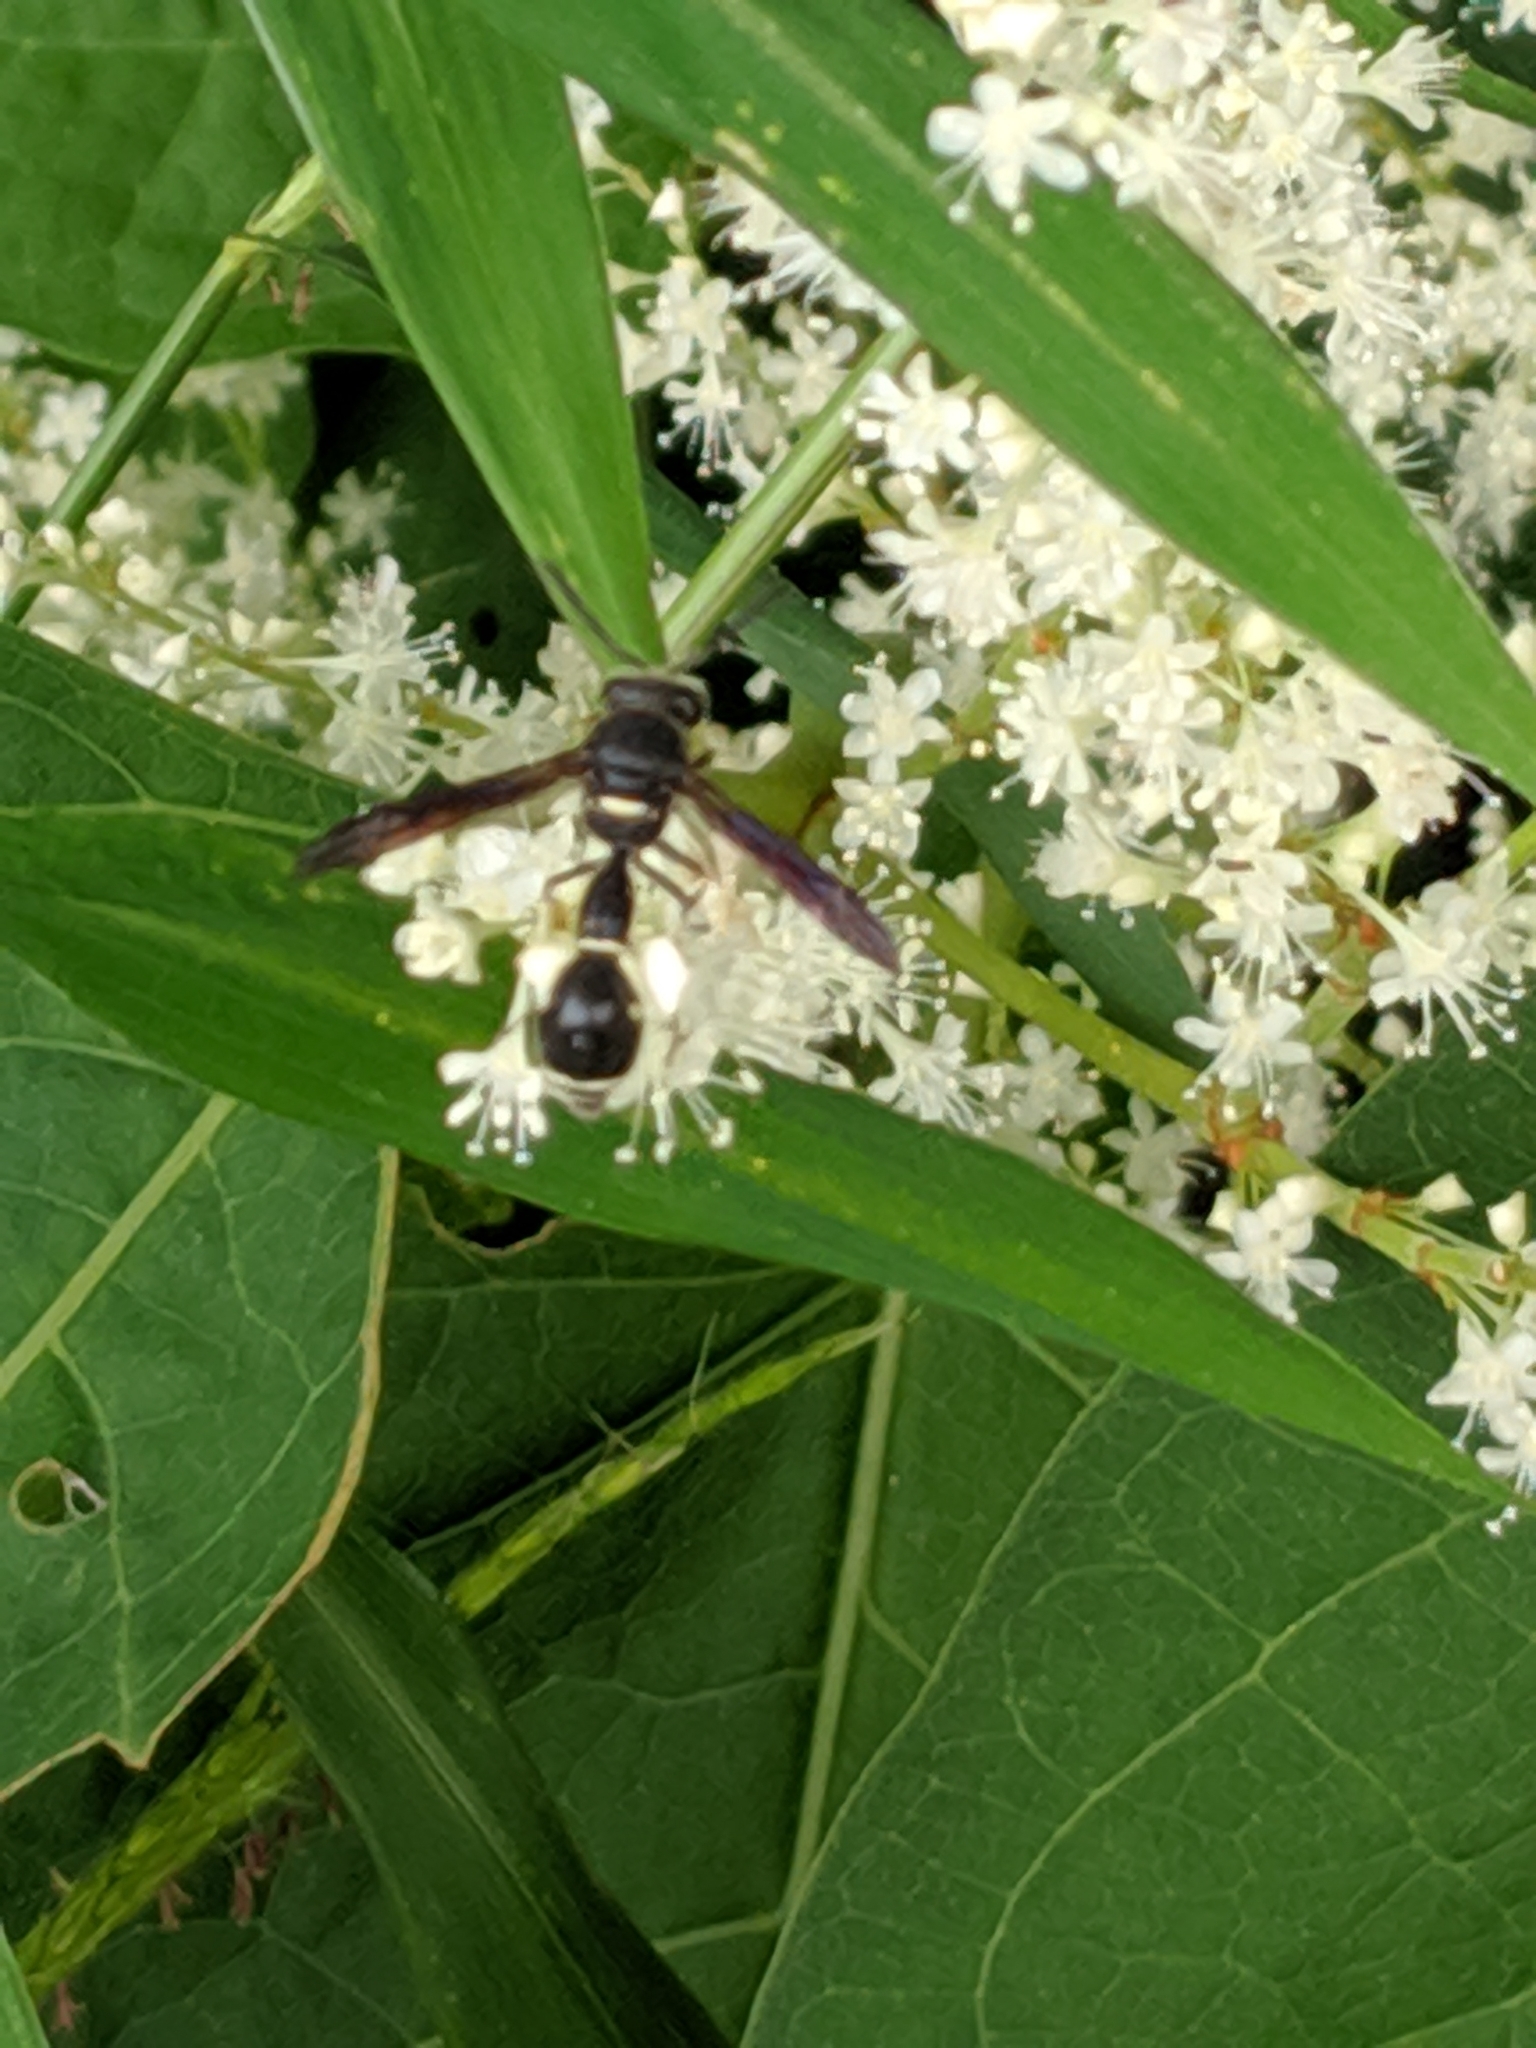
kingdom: Animalia
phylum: Arthropoda
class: Insecta
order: Hymenoptera
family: Vespidae
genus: Eumenes
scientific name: Eumenes fraternus
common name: Fraternal potter wasp
